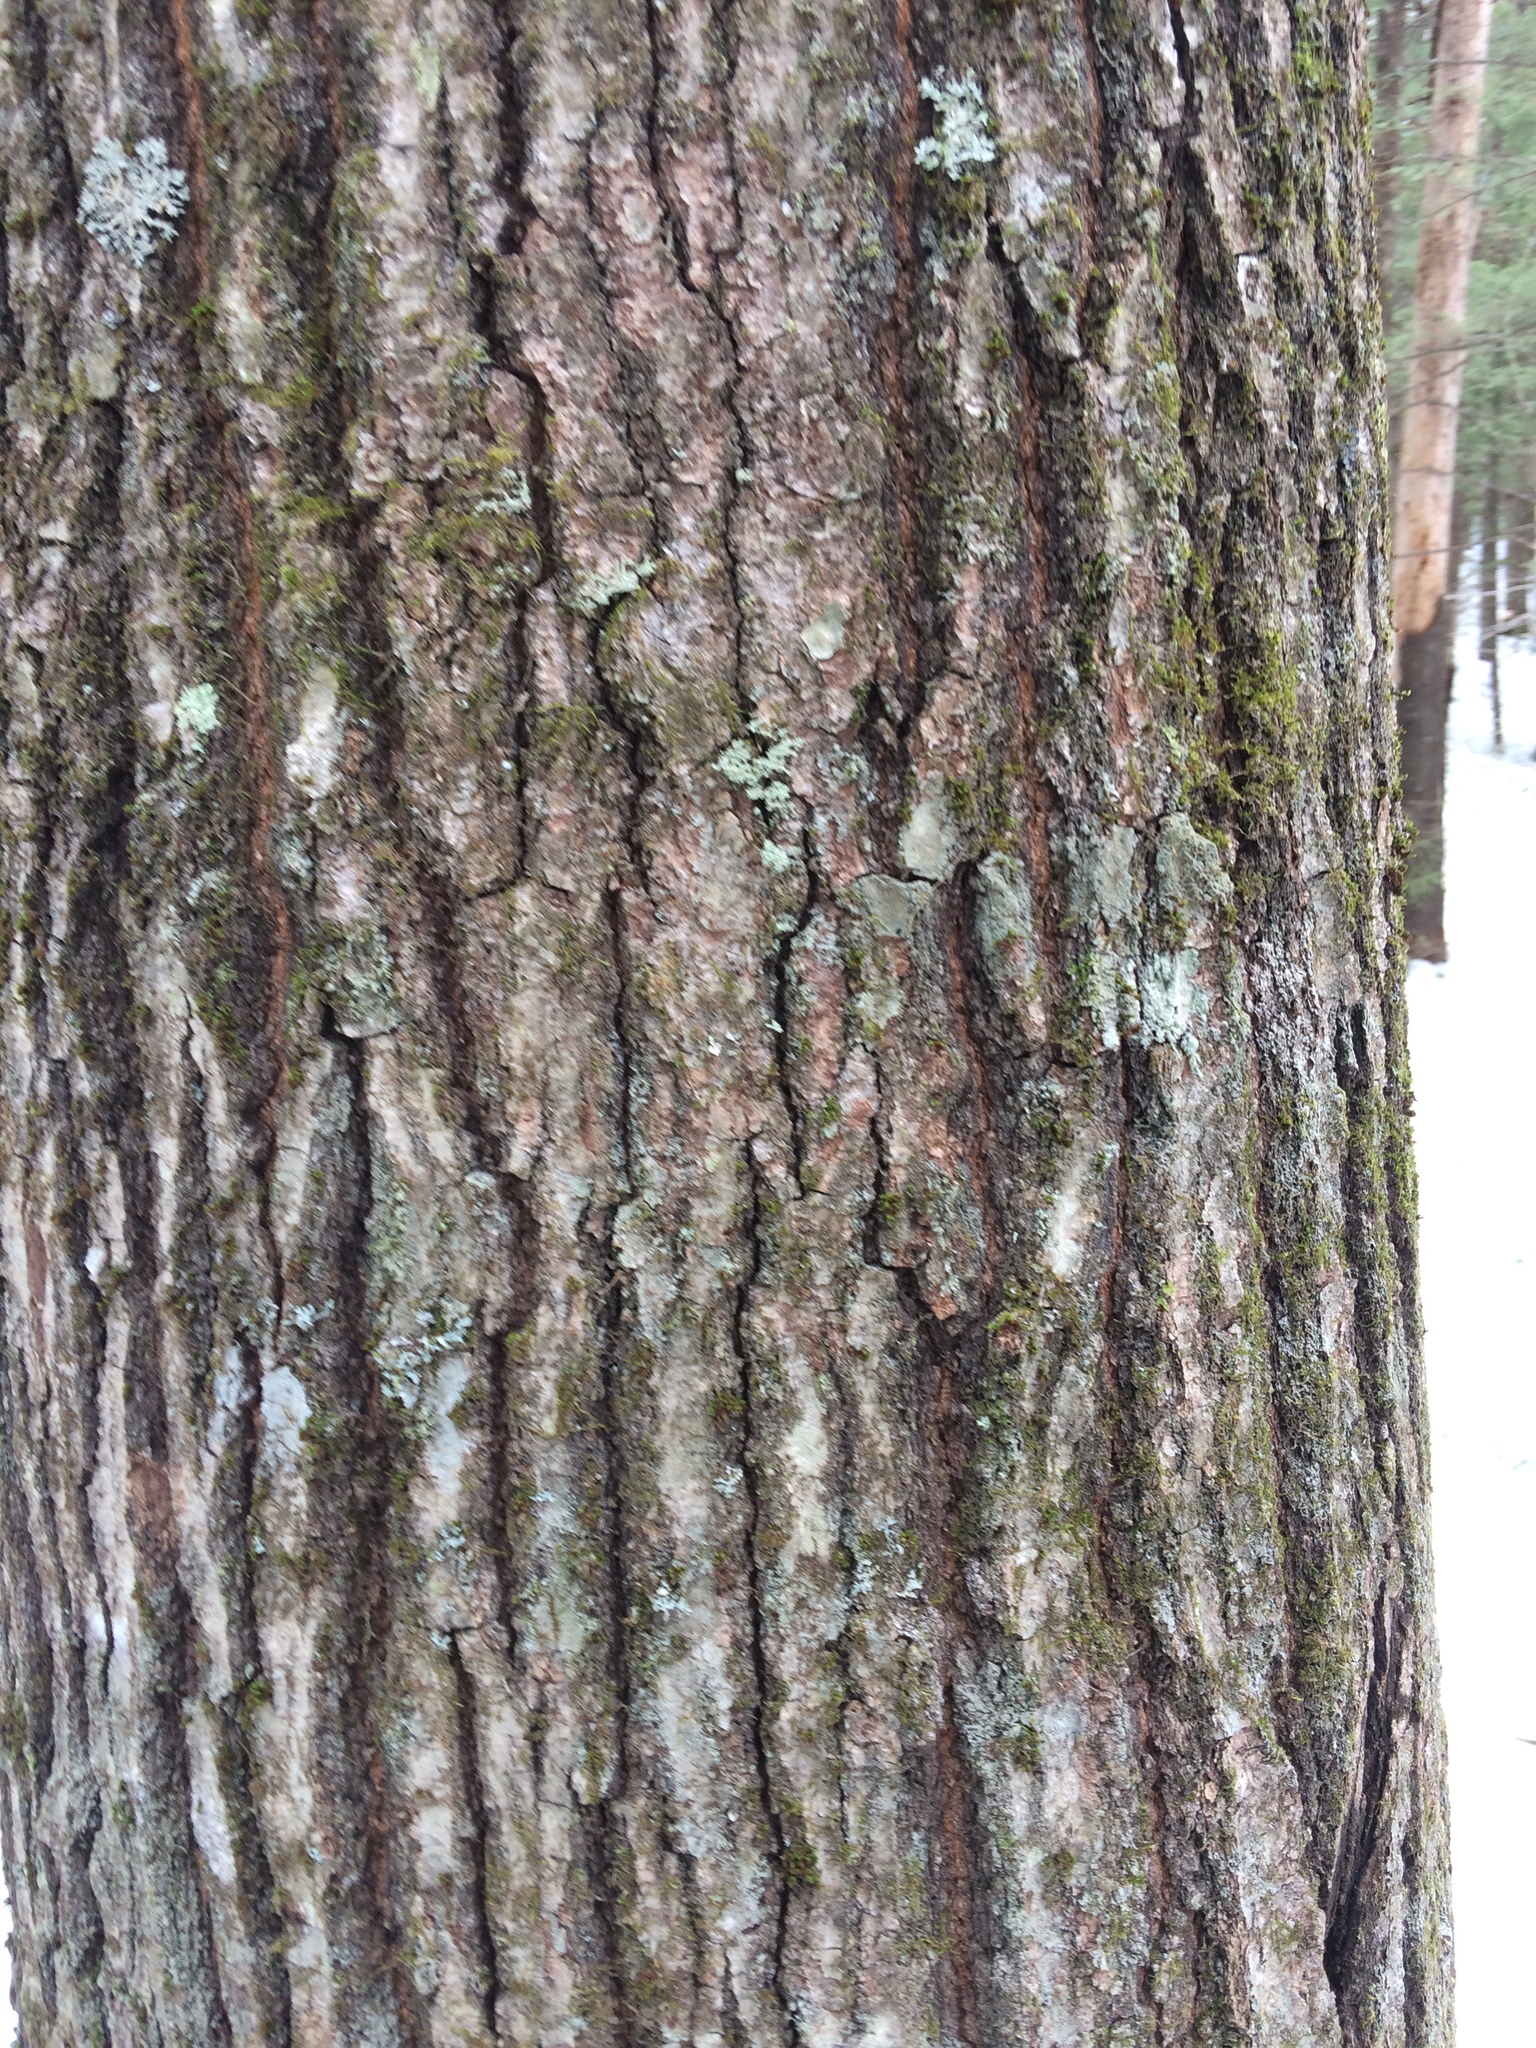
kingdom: Plantae
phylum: Tracheophyta
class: Magnoliopsida
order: Fagales
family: Fagaceae
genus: Quercus
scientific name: Quercus rubra
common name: Red oak
